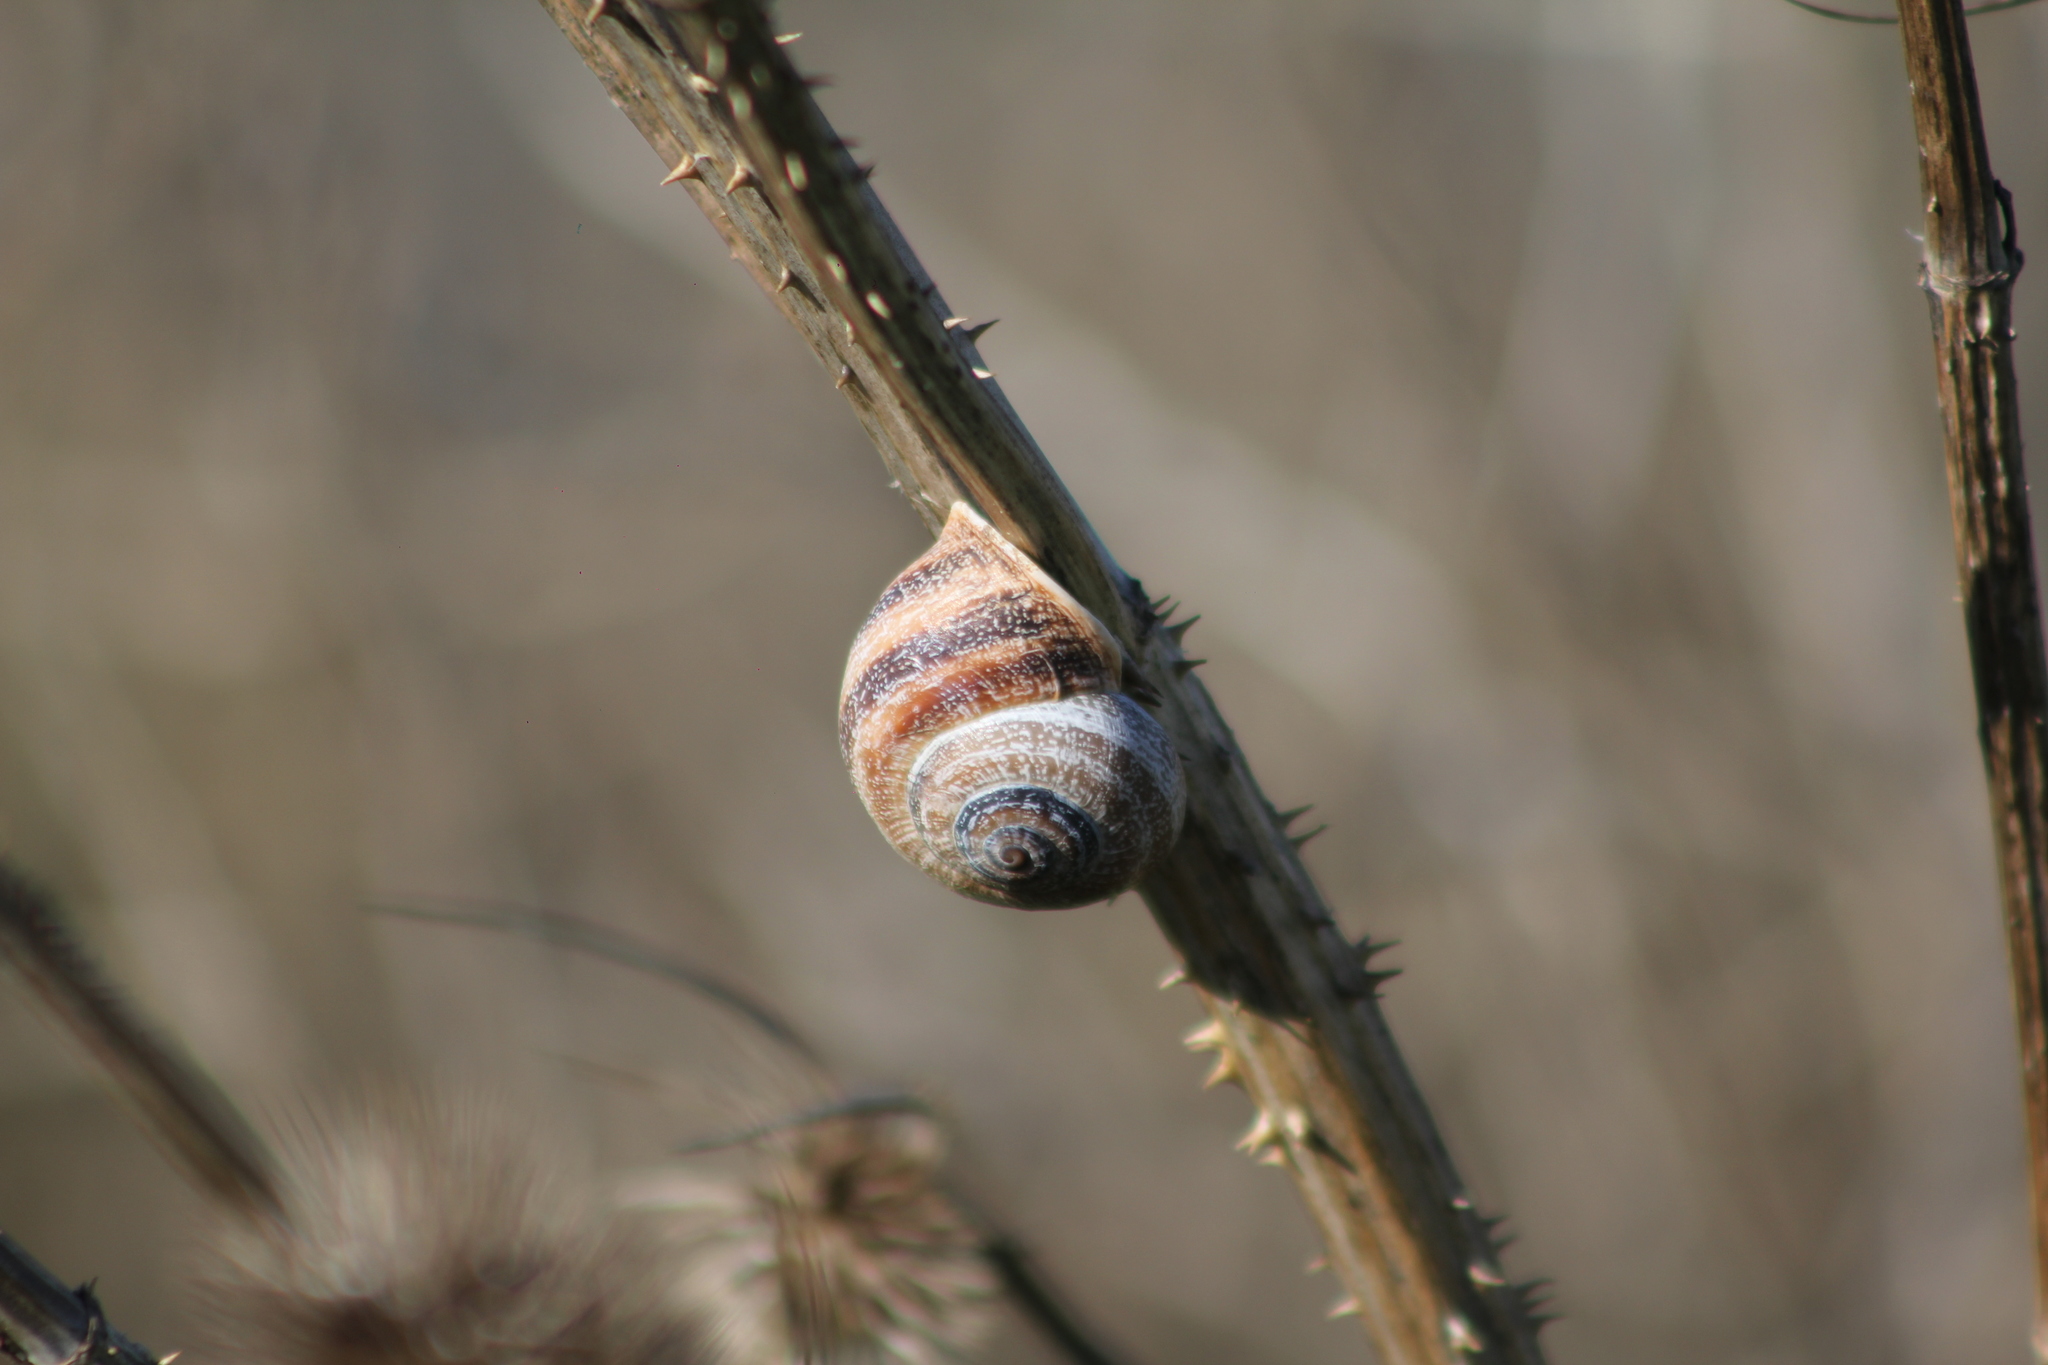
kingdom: Animalia
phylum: Mollusca
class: Gastropoda
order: Stylommatophora
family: Helicidae
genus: Otala
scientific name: Otala punctata
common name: Milk snail
